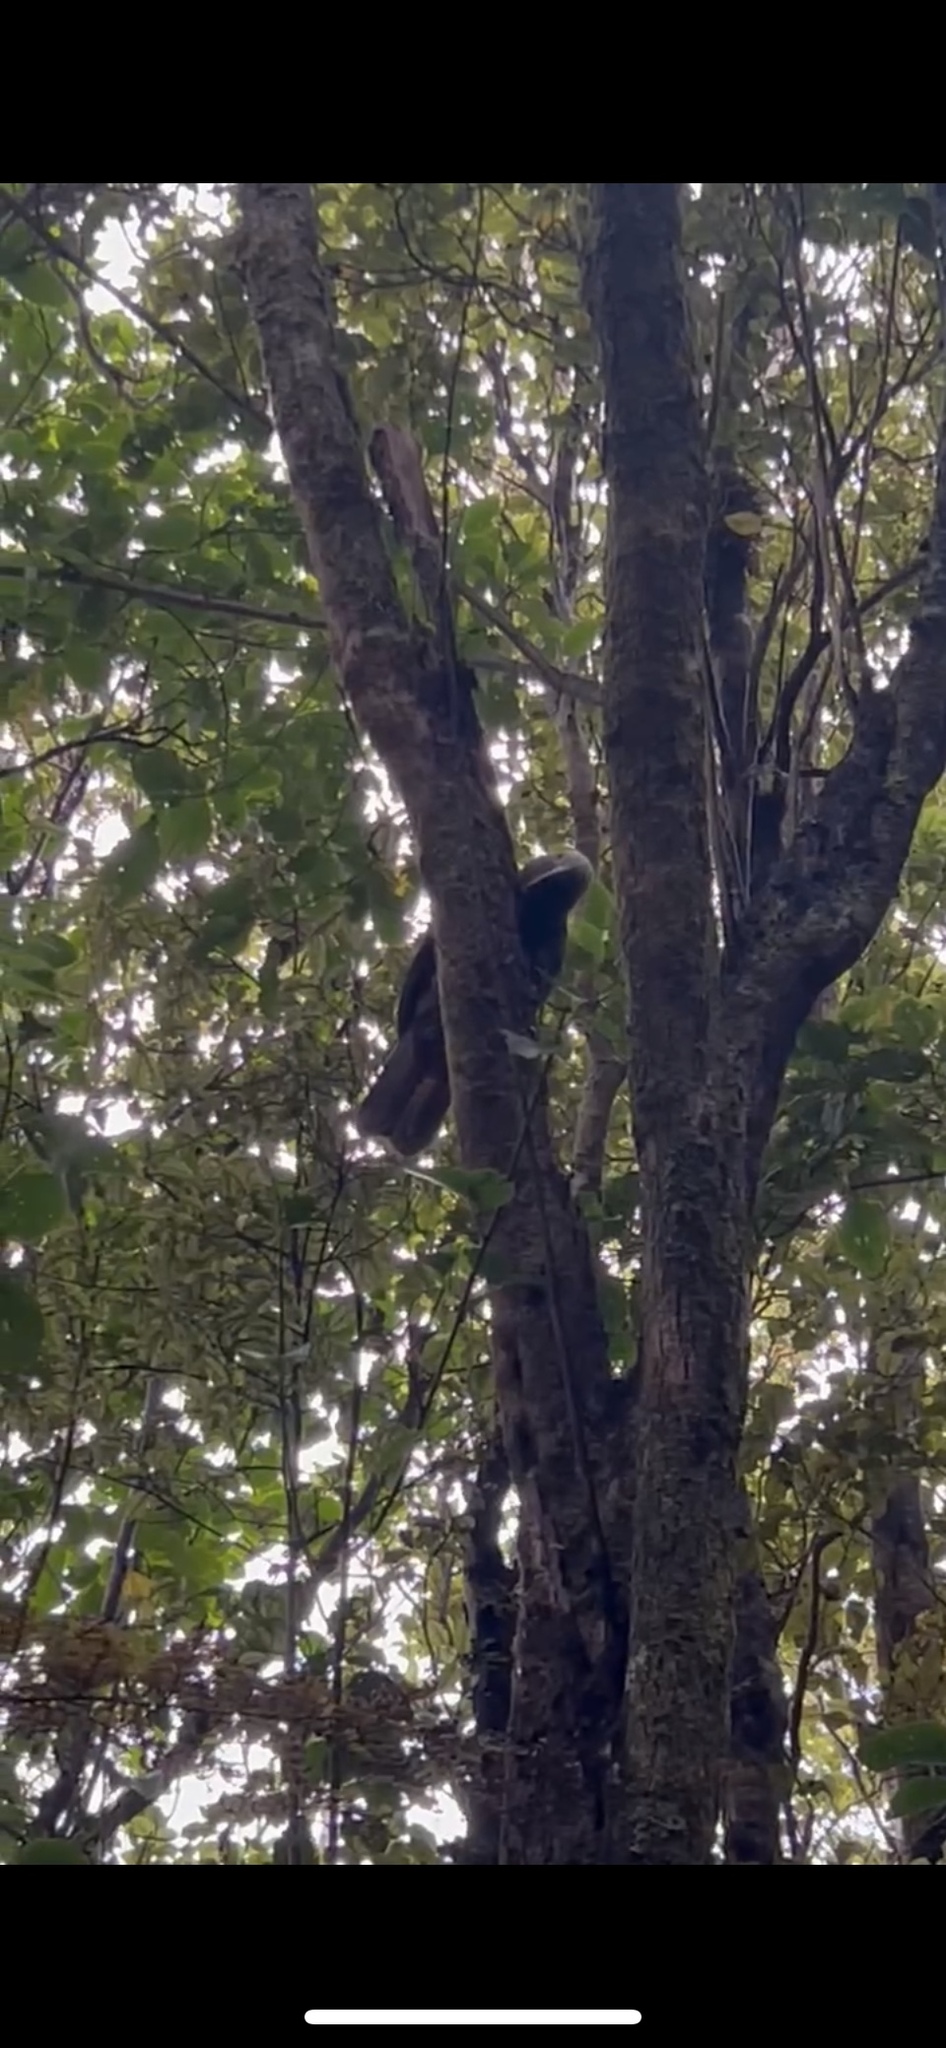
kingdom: Animalia
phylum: Chordata
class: Aves
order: Psittaciformes
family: Psittacidae
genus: Nestor
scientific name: Nestor meridionalis
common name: New zealand kaka
